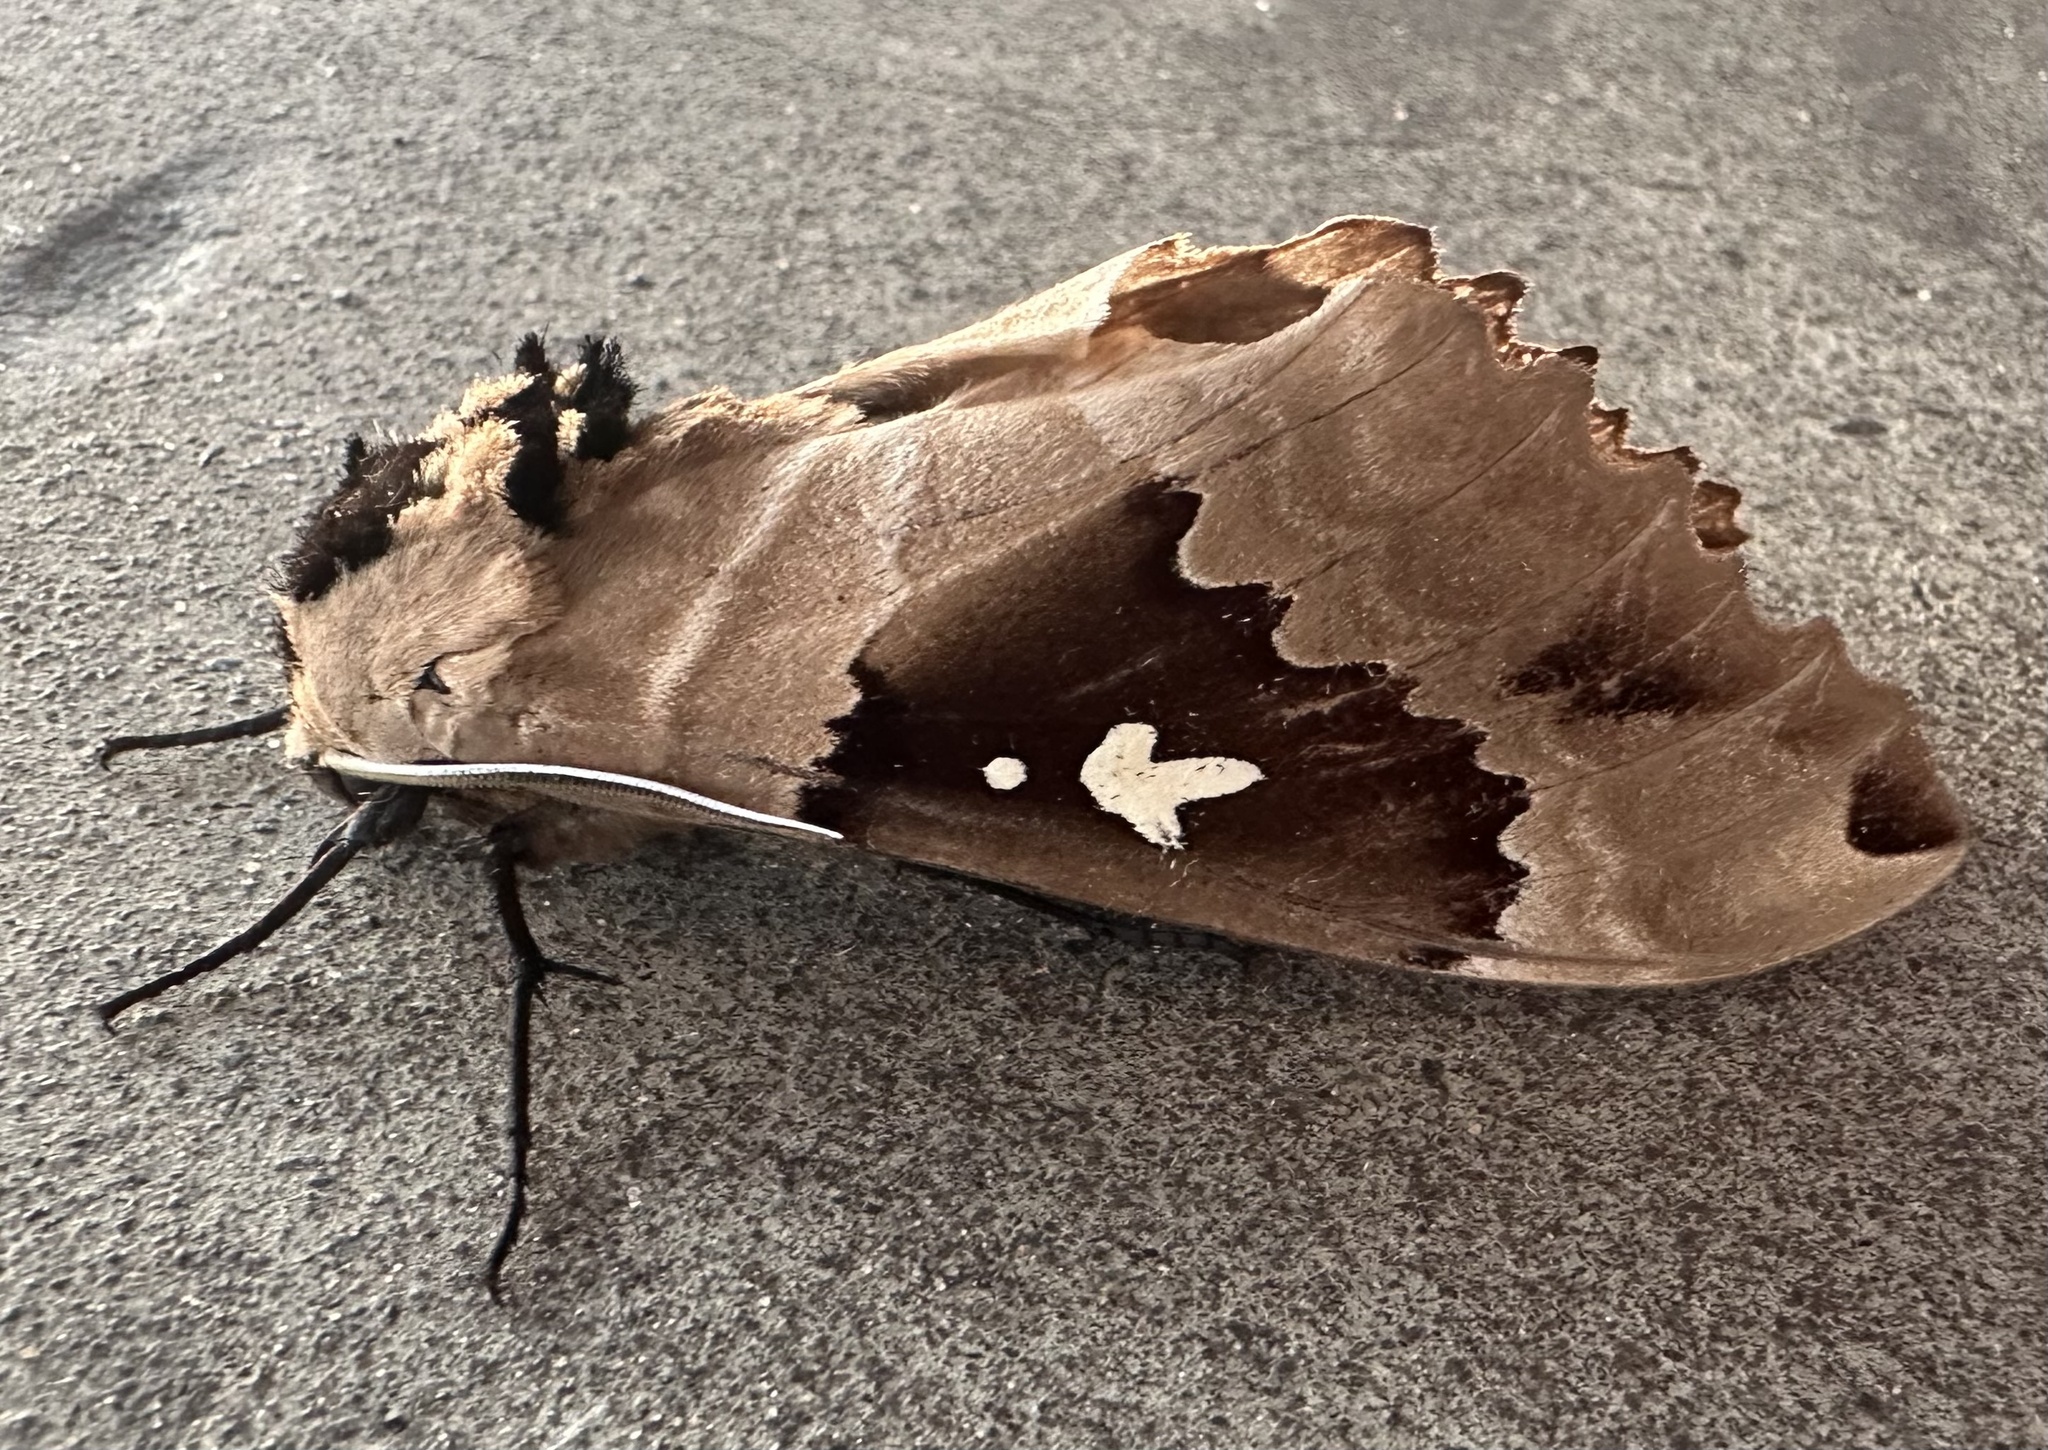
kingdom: Animalia
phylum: Arthropoda
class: Insecta
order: Lepidoptera
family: Sphingidae
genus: Lophostethus
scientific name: Lophostethus dumolinii
